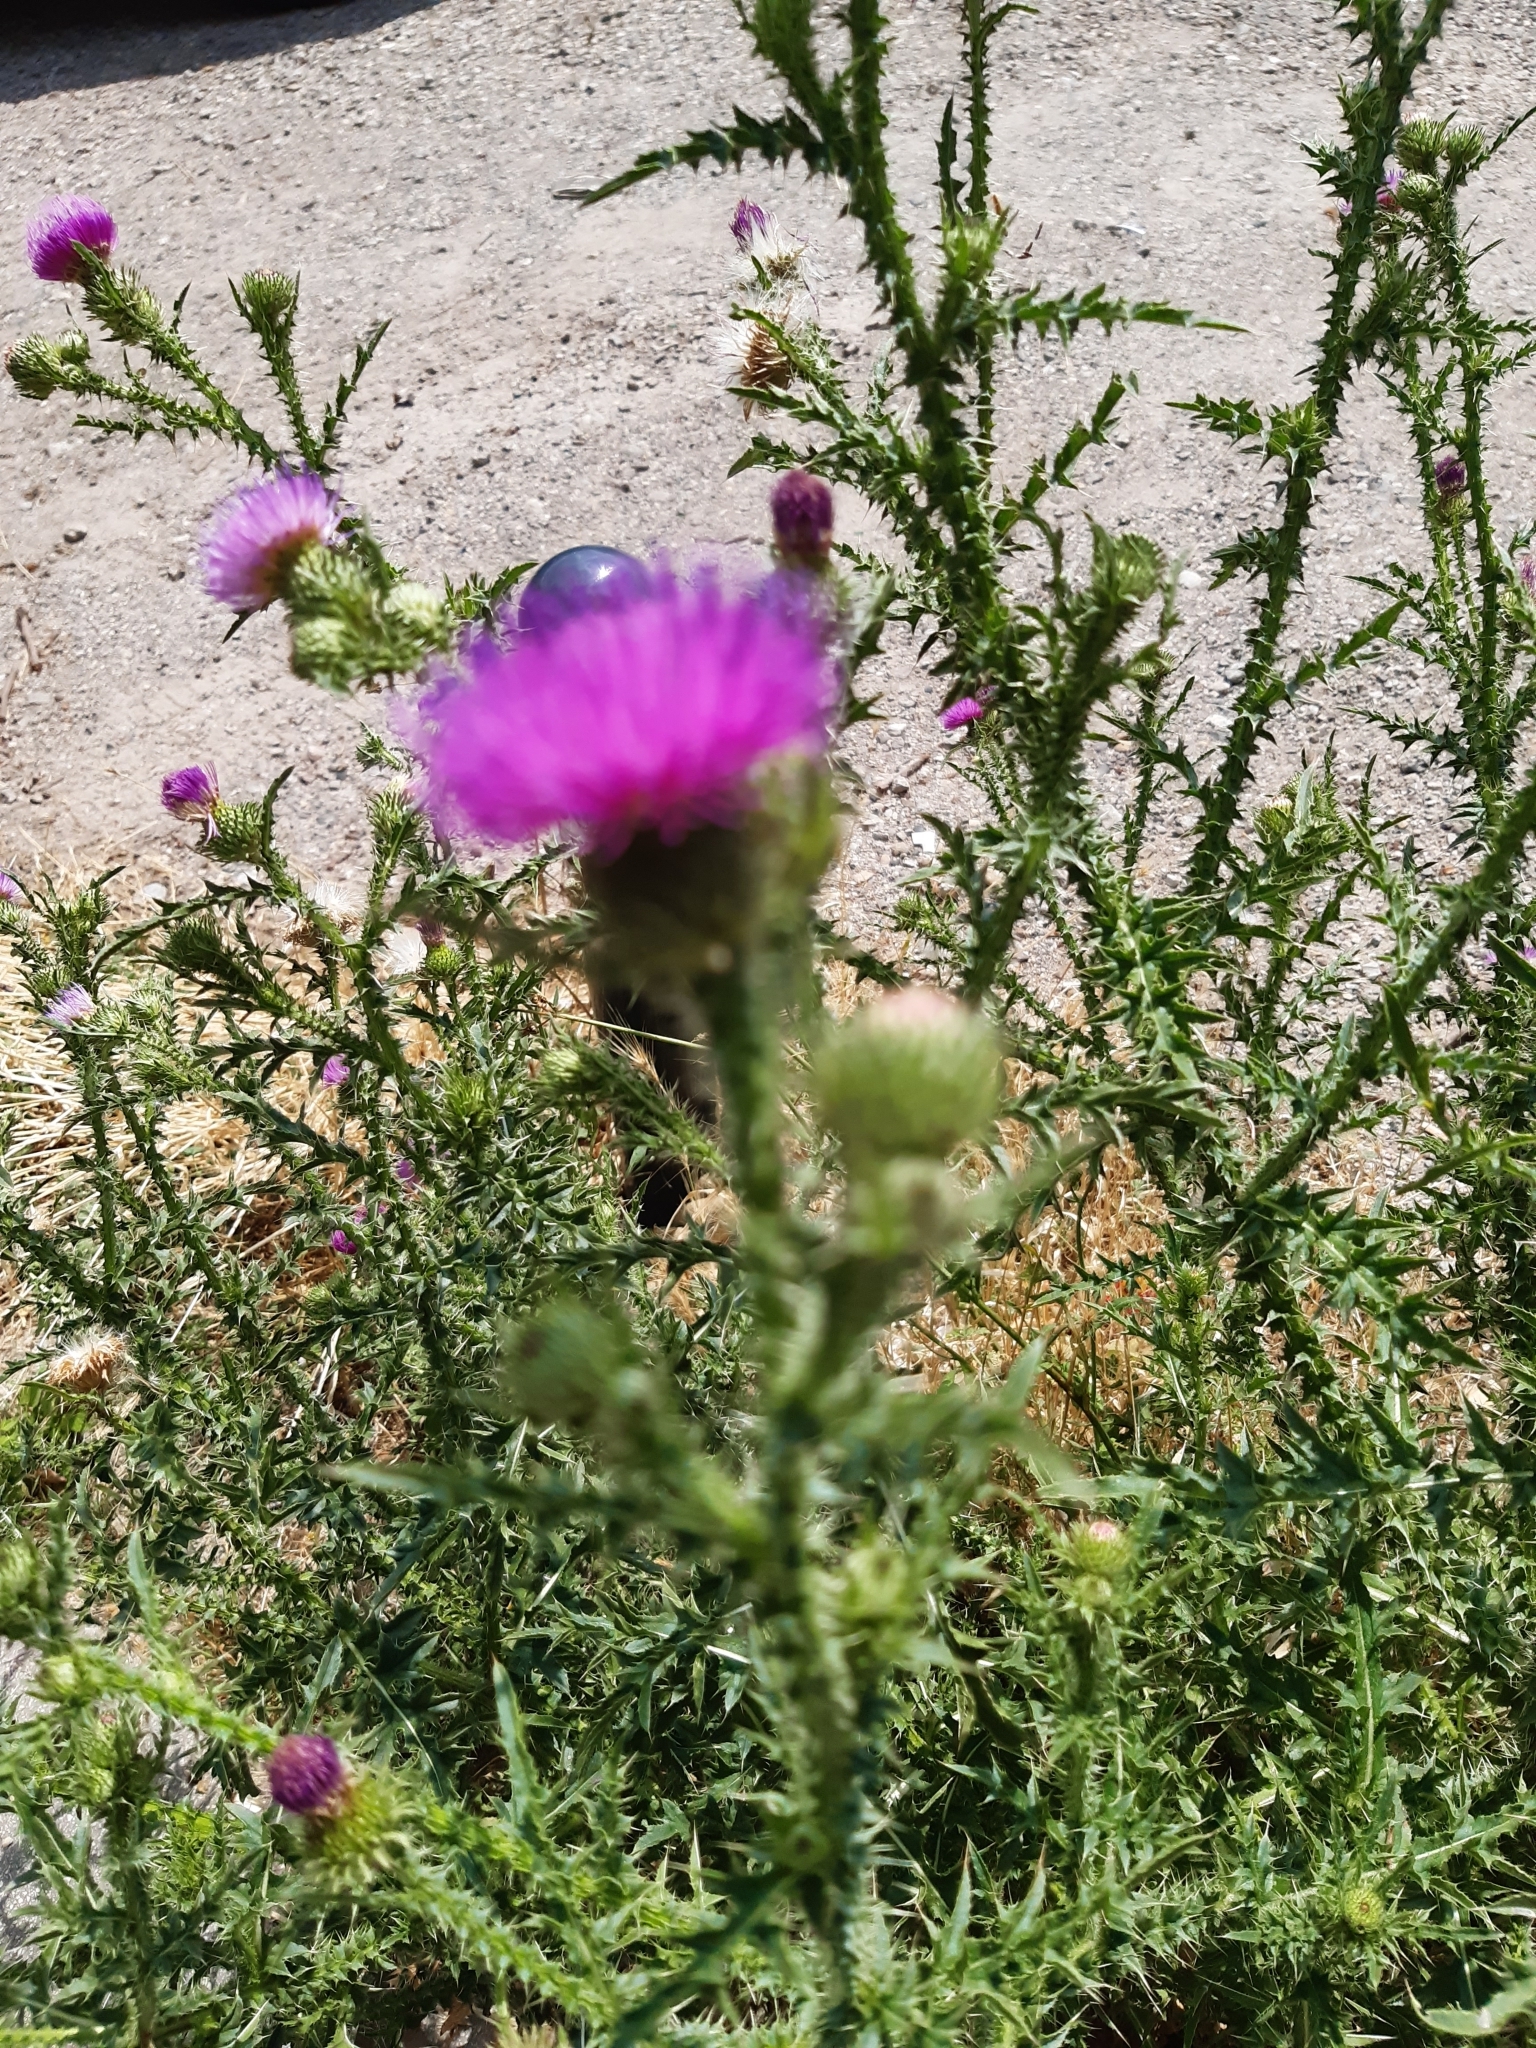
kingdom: Plantae
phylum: Tracheophyta
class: Magnoliopsida
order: Asterales
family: Asteraceae
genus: Carduus
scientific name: Carduus acanthoides
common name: Plumeless thistle
